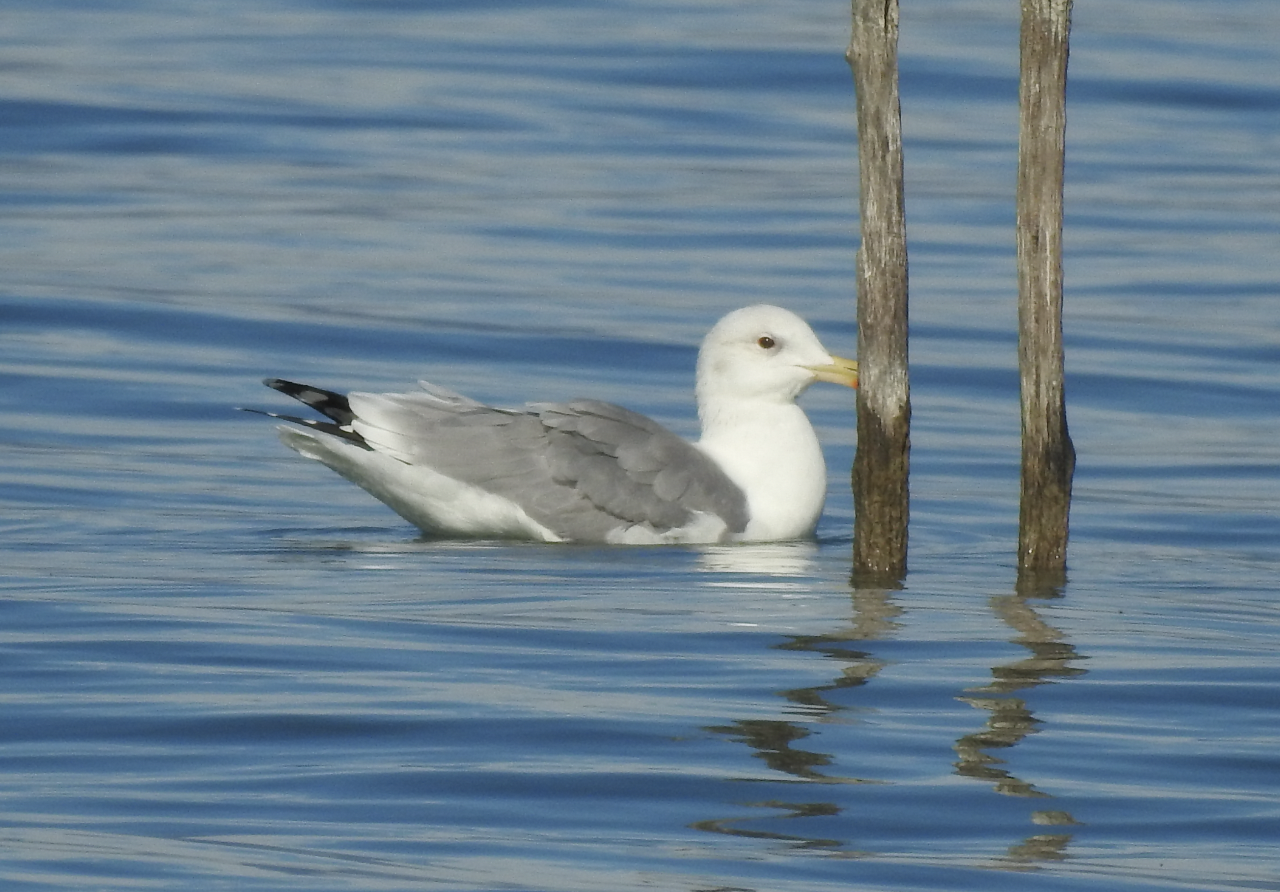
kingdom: Animalia
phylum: Chordata
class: Aves
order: Charadriiformes
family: Laridae
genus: Larus
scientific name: Larus cachinnans
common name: Caspian gull
